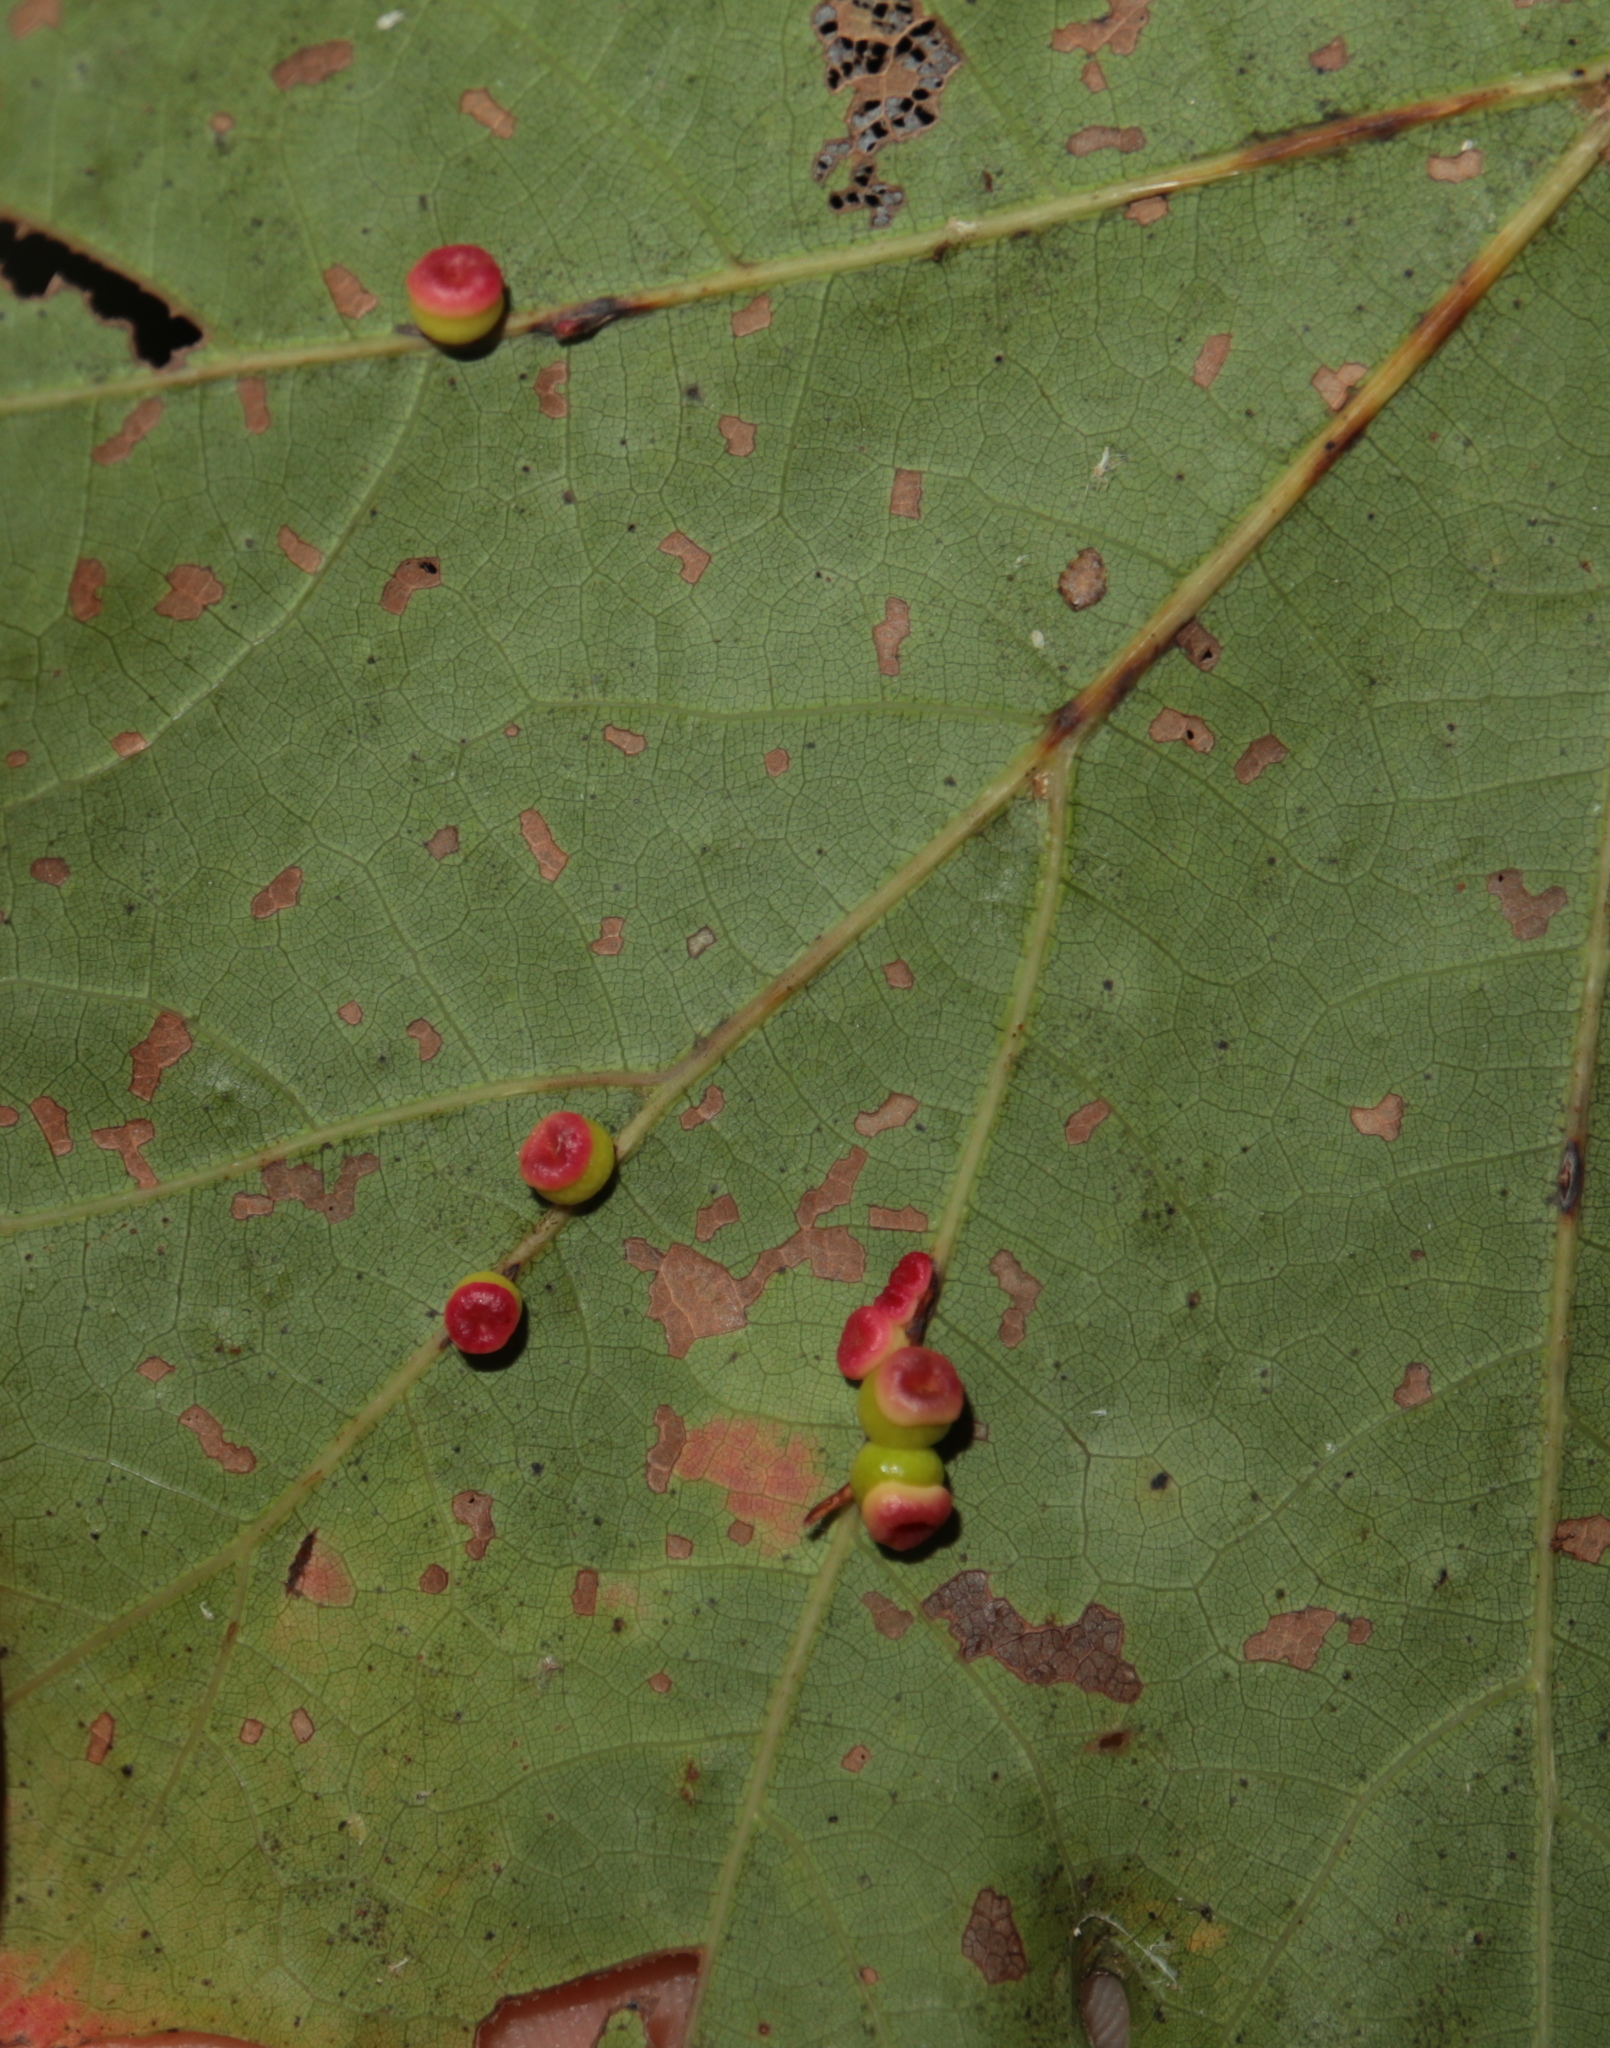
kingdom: Animalia
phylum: Arthropoda
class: Insecta
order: Hymenoptera
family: Cynipidae
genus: Kokkocynips
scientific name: Kokkocynips rileyi
